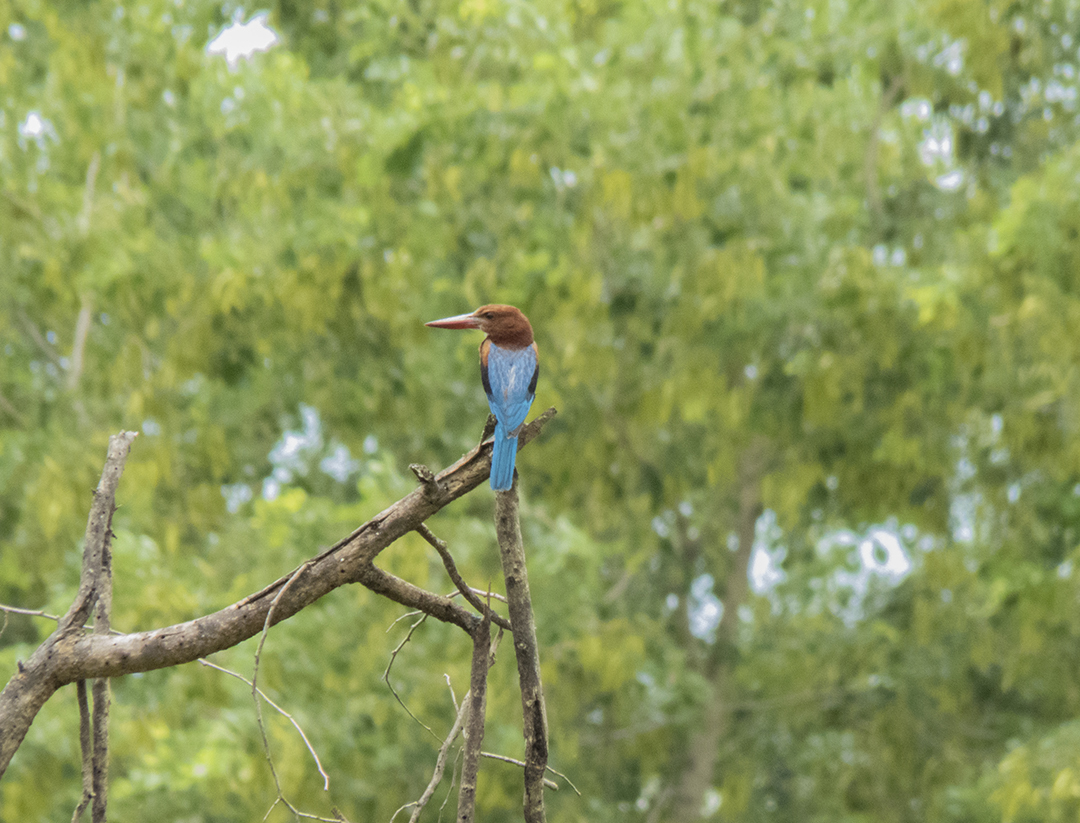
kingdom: Animalia
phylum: Chordata
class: Aves
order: Coraciiformes
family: Alcedinidae
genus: Halcyon
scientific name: Halcyon smyrnensis
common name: White-throated kingfisher
